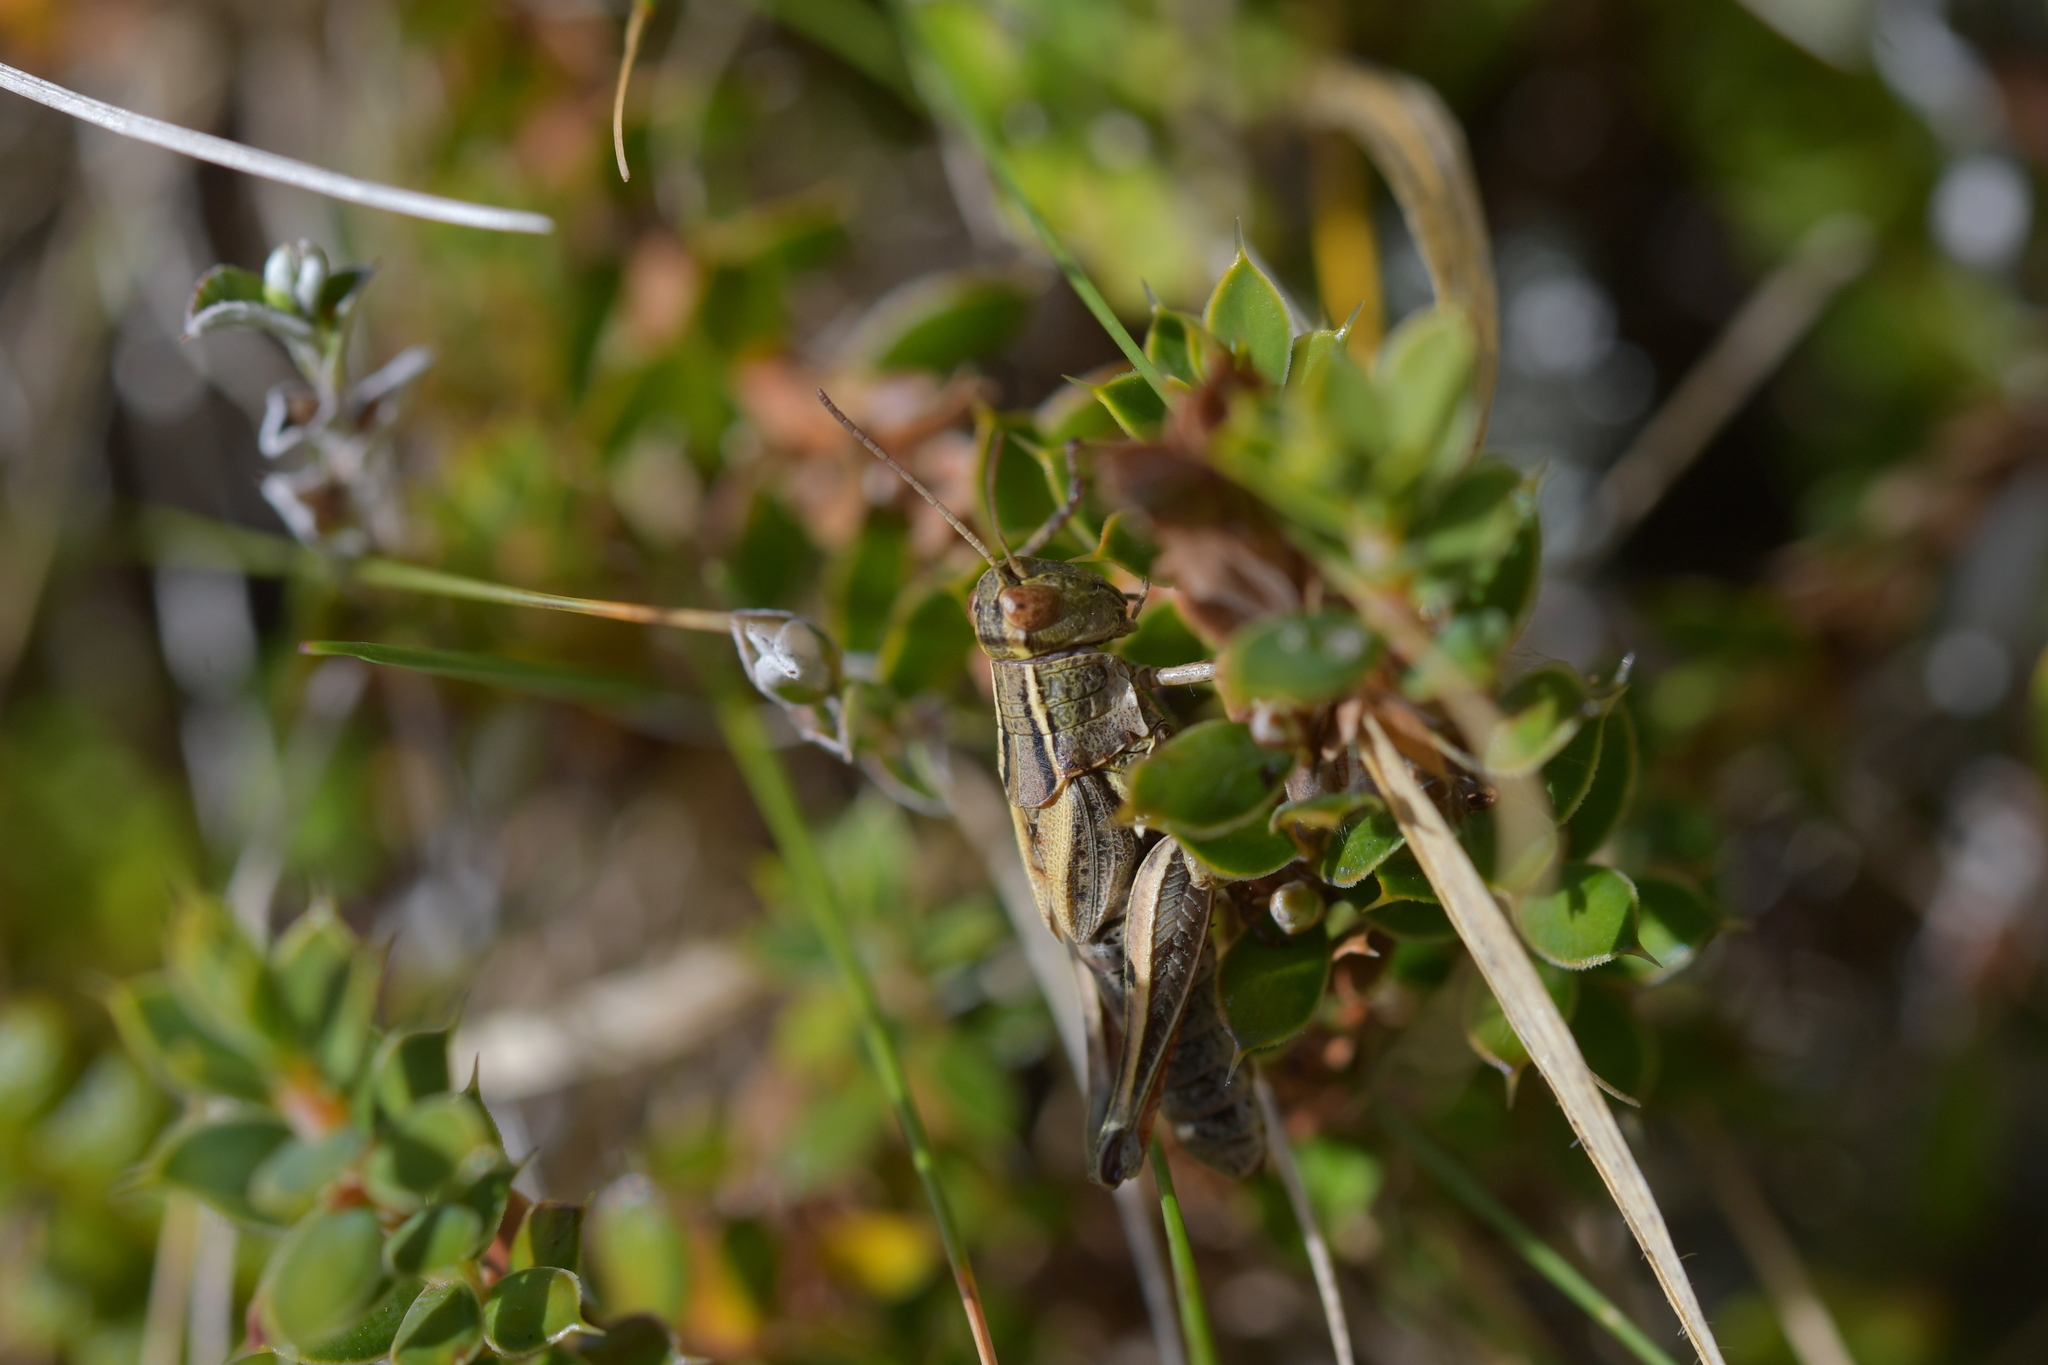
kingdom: Animalia
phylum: Arthropoda
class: Insecta
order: Orthoptera
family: Acrididae
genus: Phaulacridium
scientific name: Phaulacridium marginale
